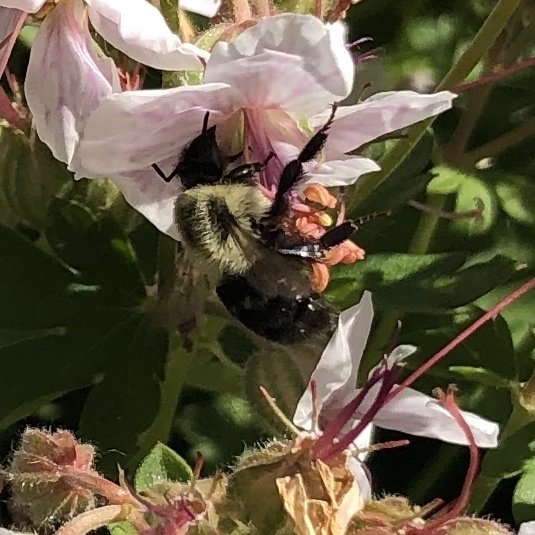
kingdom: Animalia
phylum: Arthropoda
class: Insecta
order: Hymenoptera
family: Apidae
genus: Bombus
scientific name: Bombus impatiens
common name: Common eastern bumble bee
